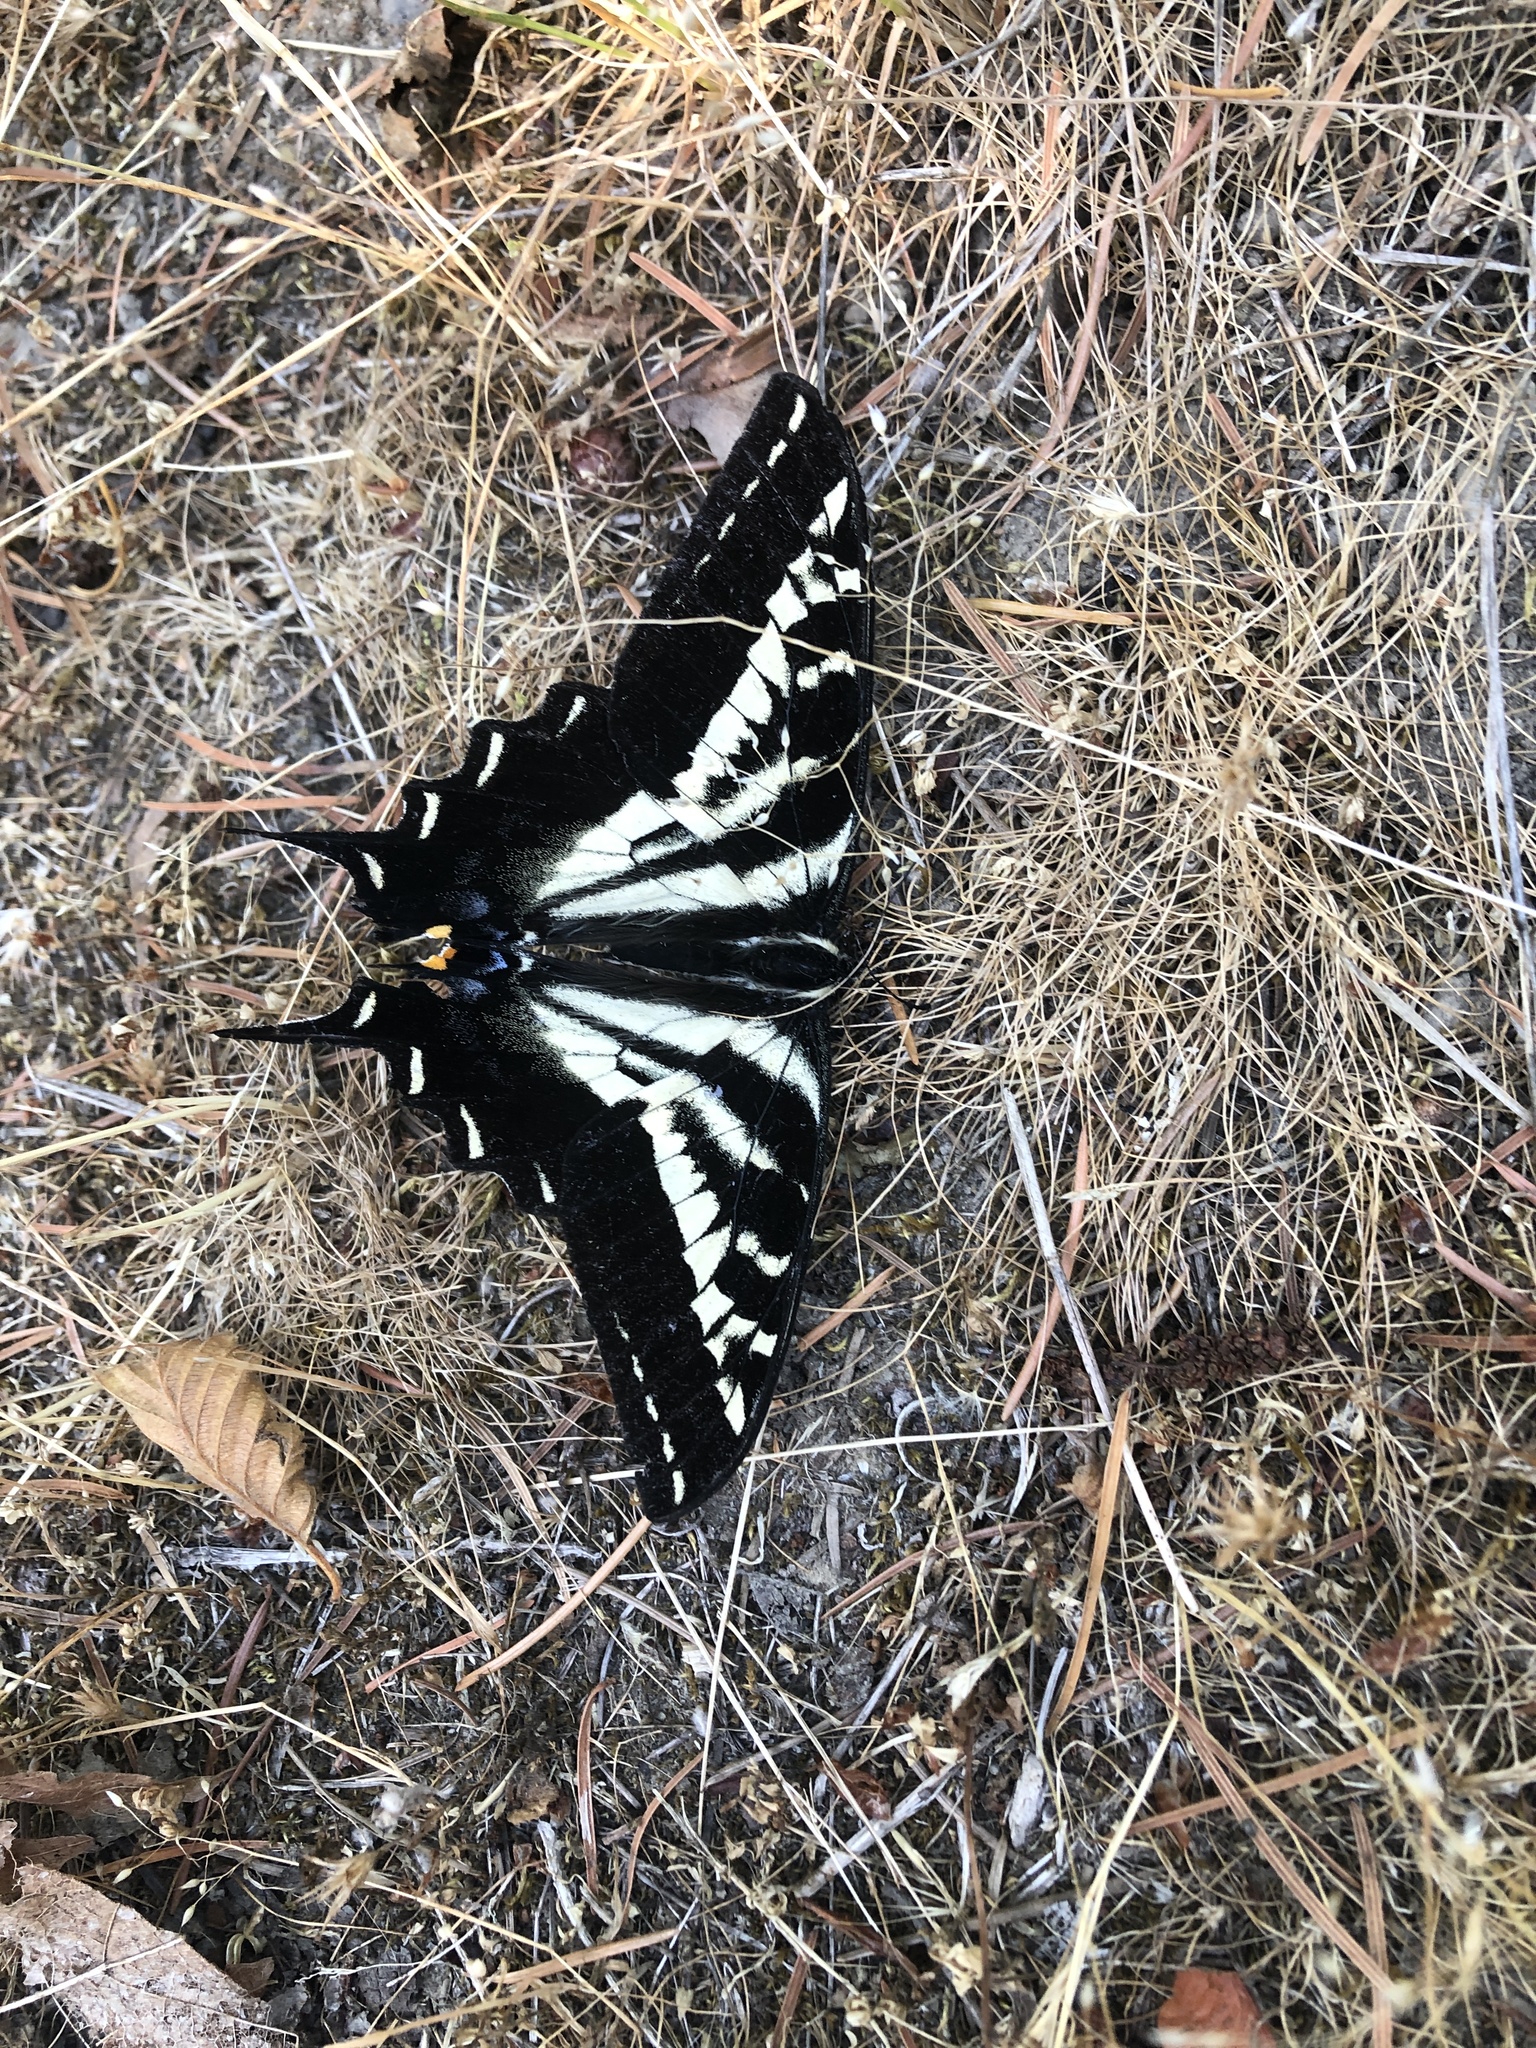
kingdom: Animalia
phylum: Arthropoda
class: Insecta
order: Lepidoptera
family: Papilionidae
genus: Papilio
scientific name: Papilio eurymedon
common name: Pale tiger swallowtail
